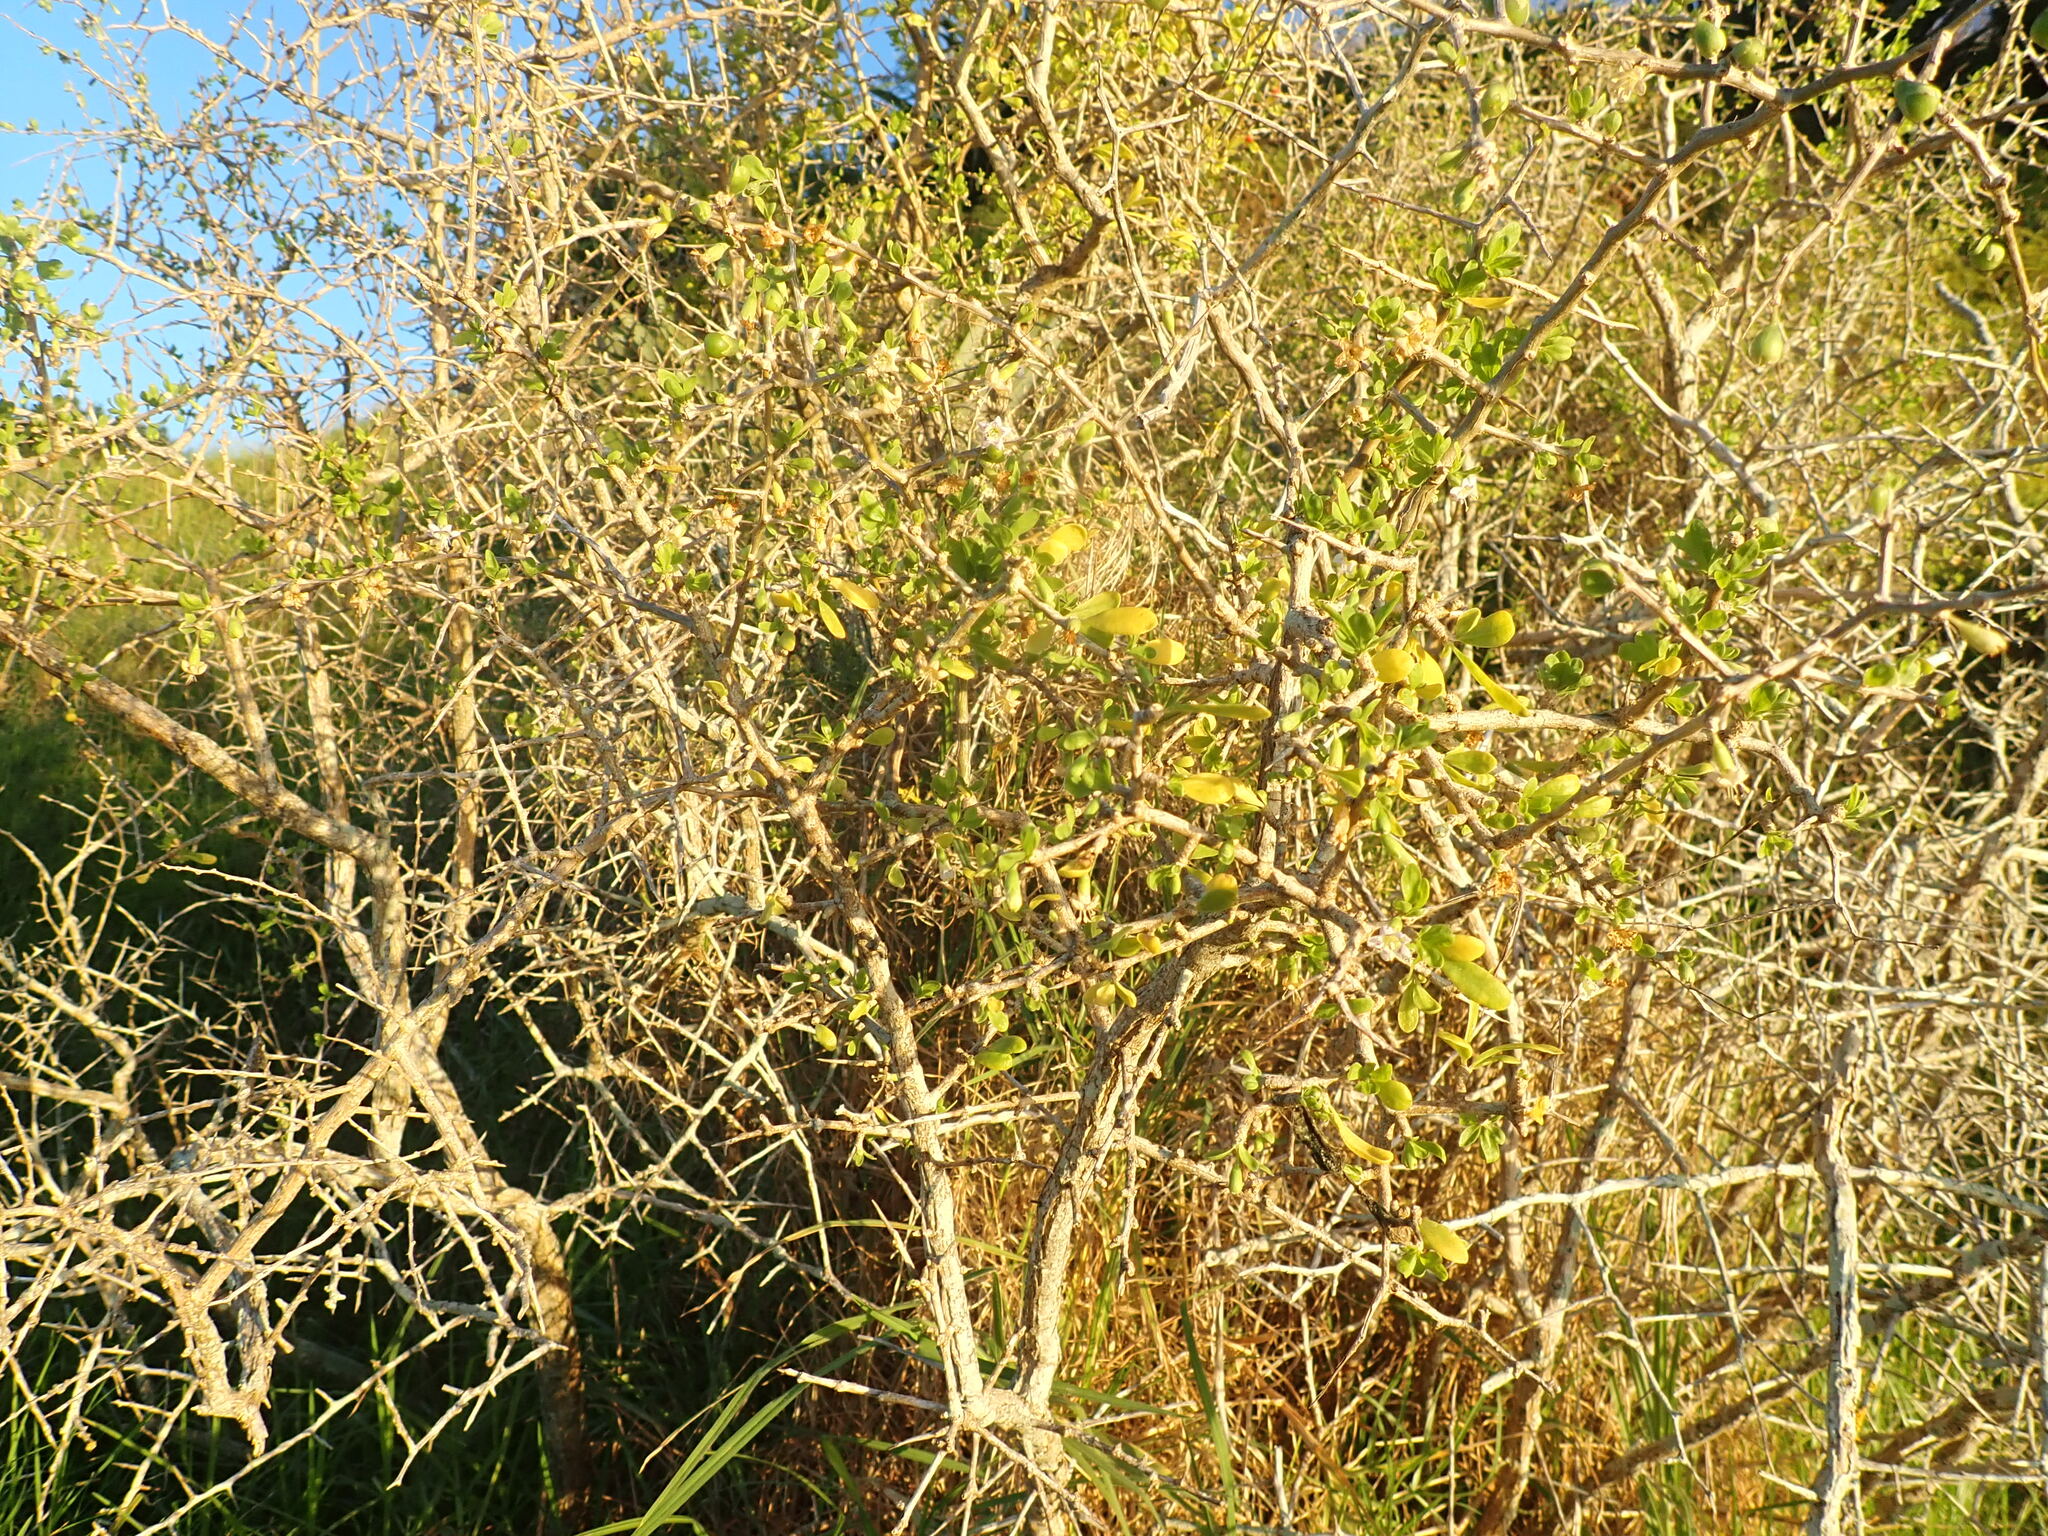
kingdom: Plantae
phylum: Tracheophyta
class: Magnoliopsida
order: Solanales
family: Solanaceae
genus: Lycium
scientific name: Lycium ferocissimum
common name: African boxthorn
